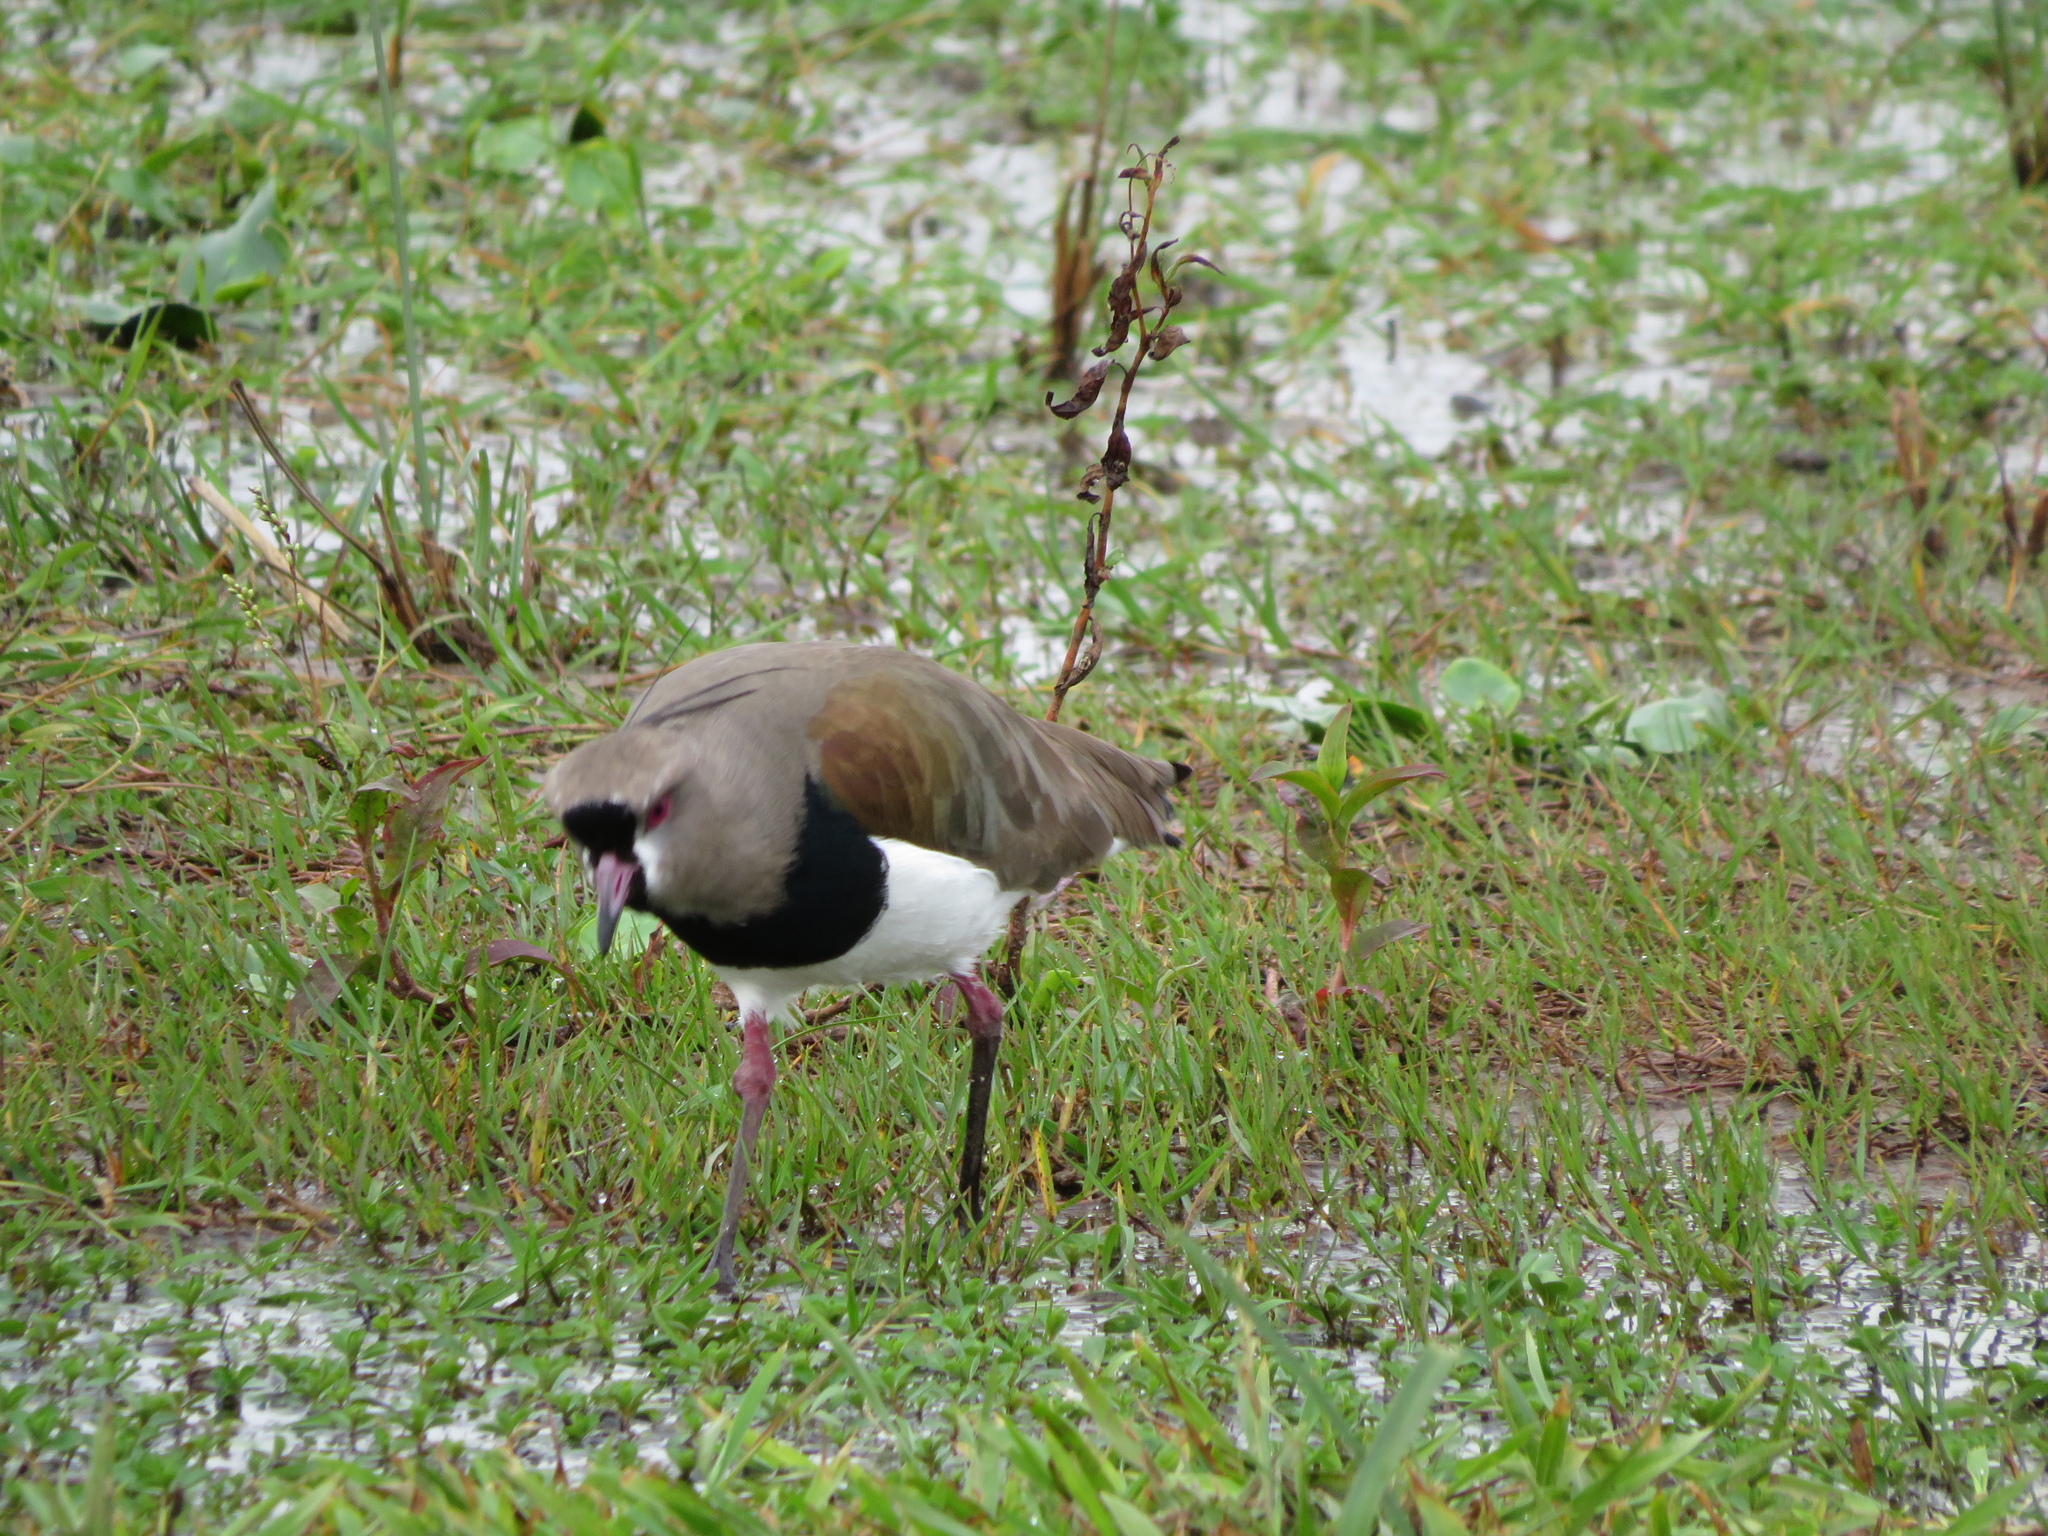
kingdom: Animalia
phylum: Chordata
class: Aves
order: Charadriiformes
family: Charadriidae
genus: Vanellus
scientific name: Vanellus chilensis
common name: Southern lapwing
